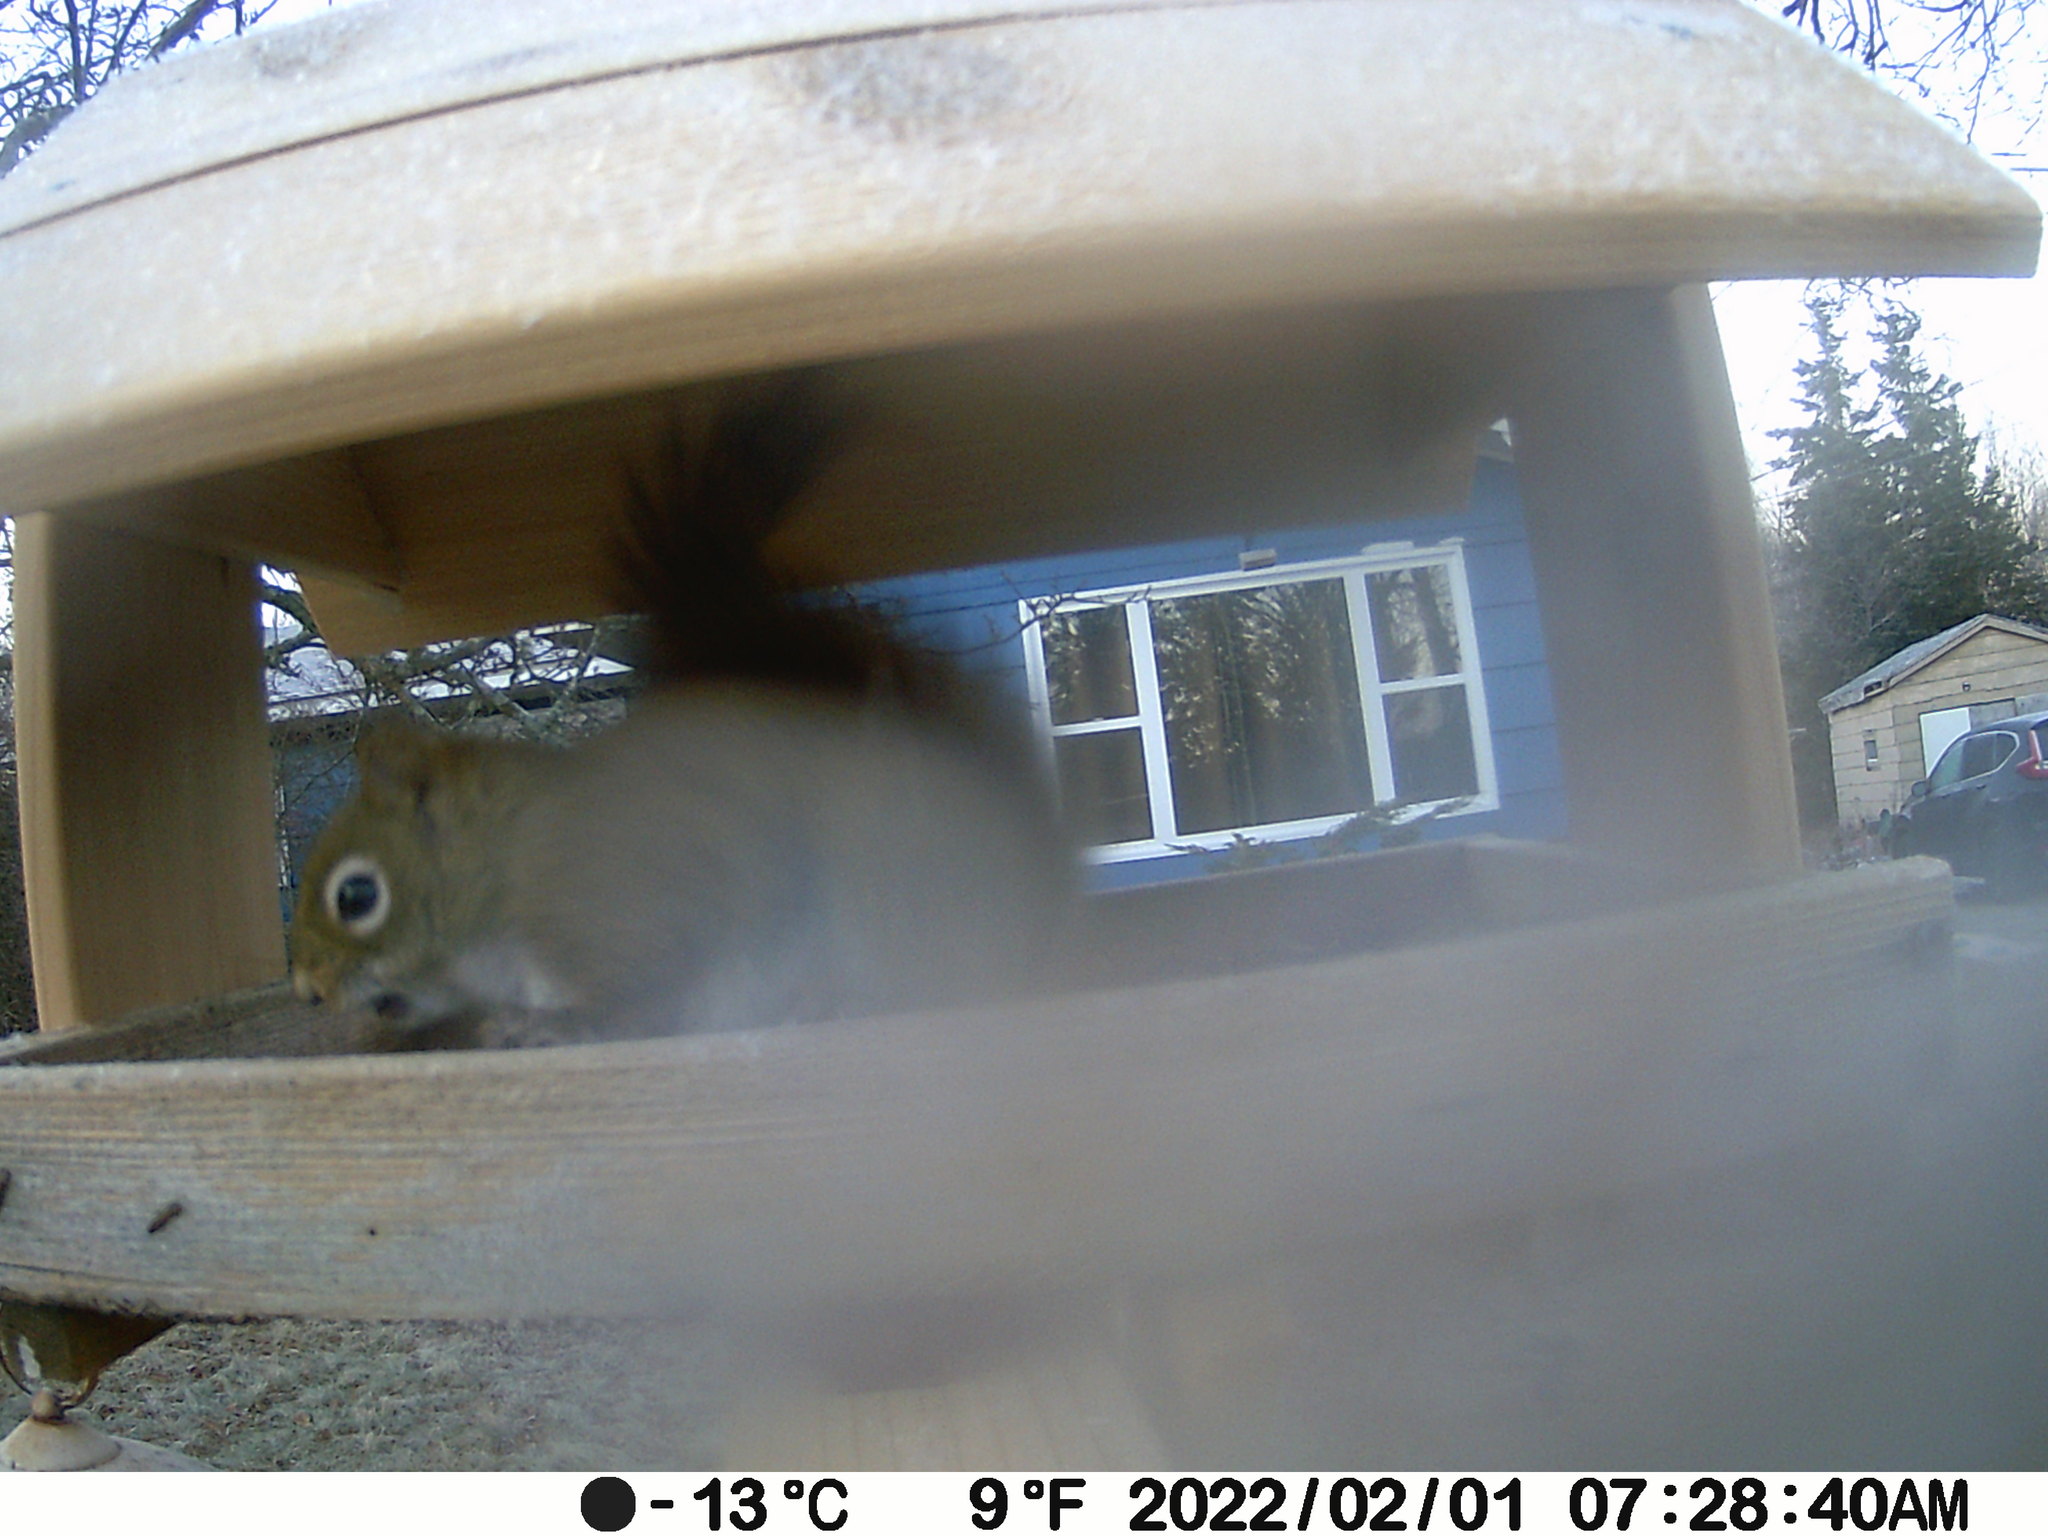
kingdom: Animalia
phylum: Chordata
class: Mammalia
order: Rodentia
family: Sciuridae
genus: Tamiasciurus
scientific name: Tamiasciurus hudsonicus
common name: Red squirrel
